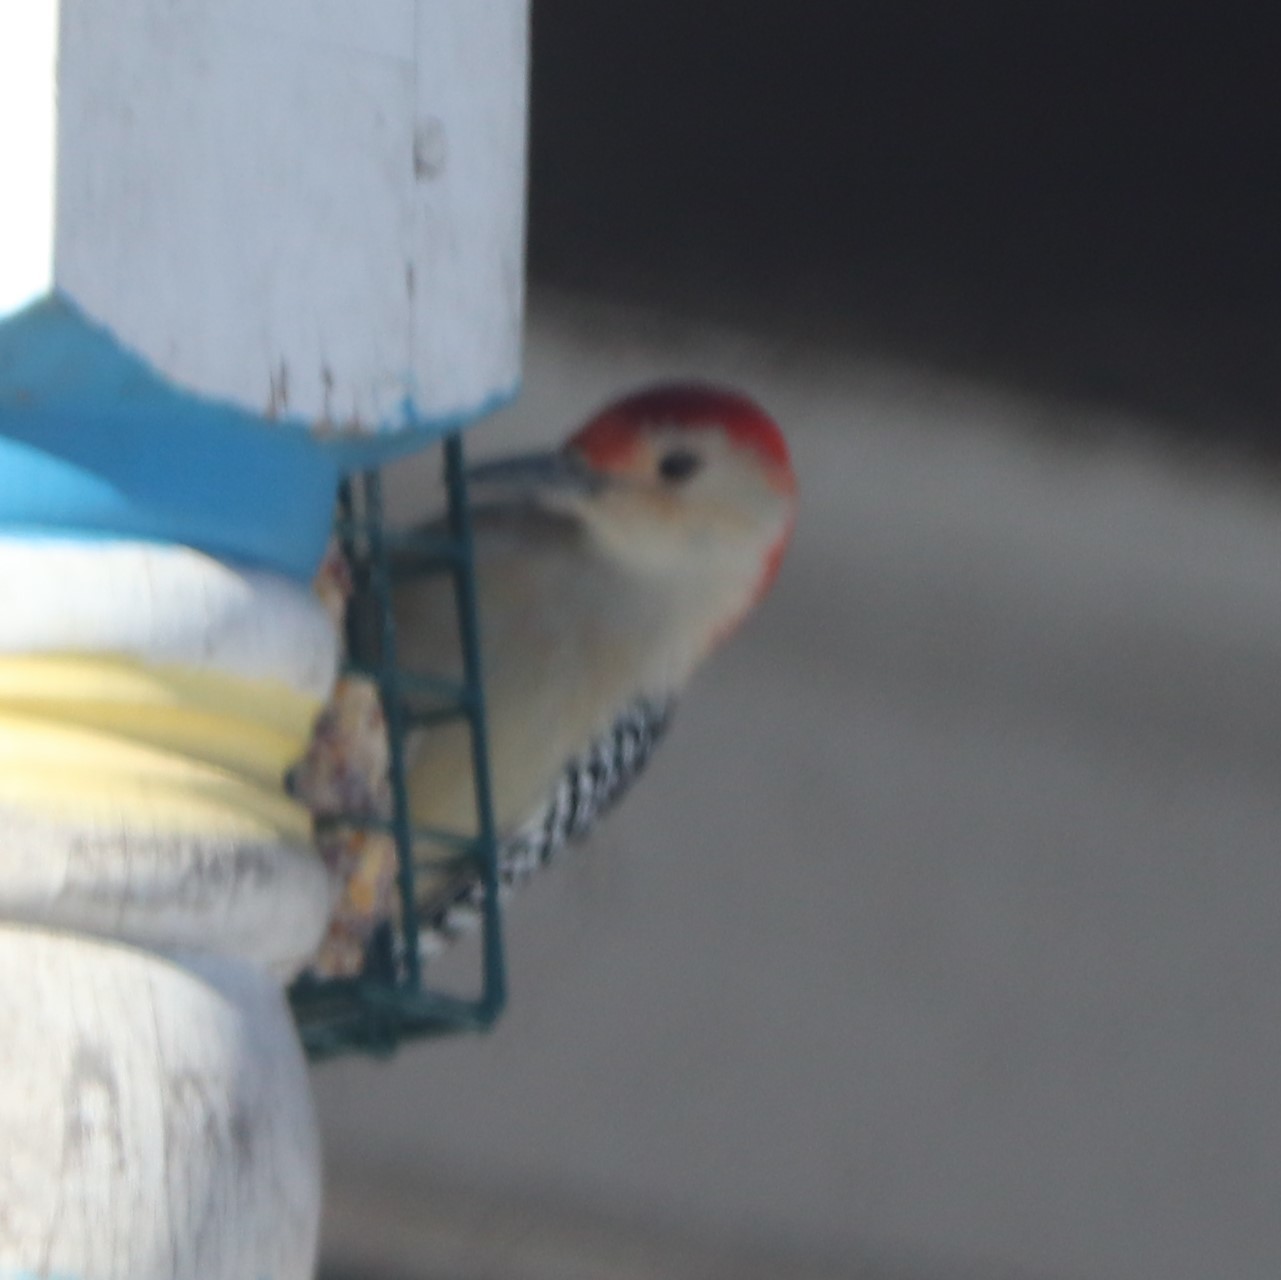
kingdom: Animalia
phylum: Chordata
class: Aves
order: Piciformes
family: Picidae
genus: Melanerpes
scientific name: Melanerpes carolinus
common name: Red-bellied woodpecker
